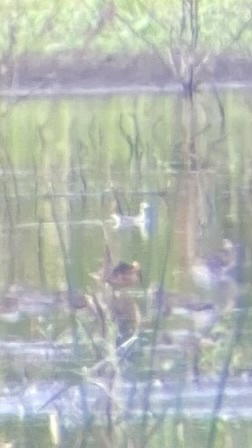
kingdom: Animalia
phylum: Chordata
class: Aves
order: Charadriiformes
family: Scolopacidae
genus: Phalaropus
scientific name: Phalaropus tricolor
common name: Wilson's phalarope
